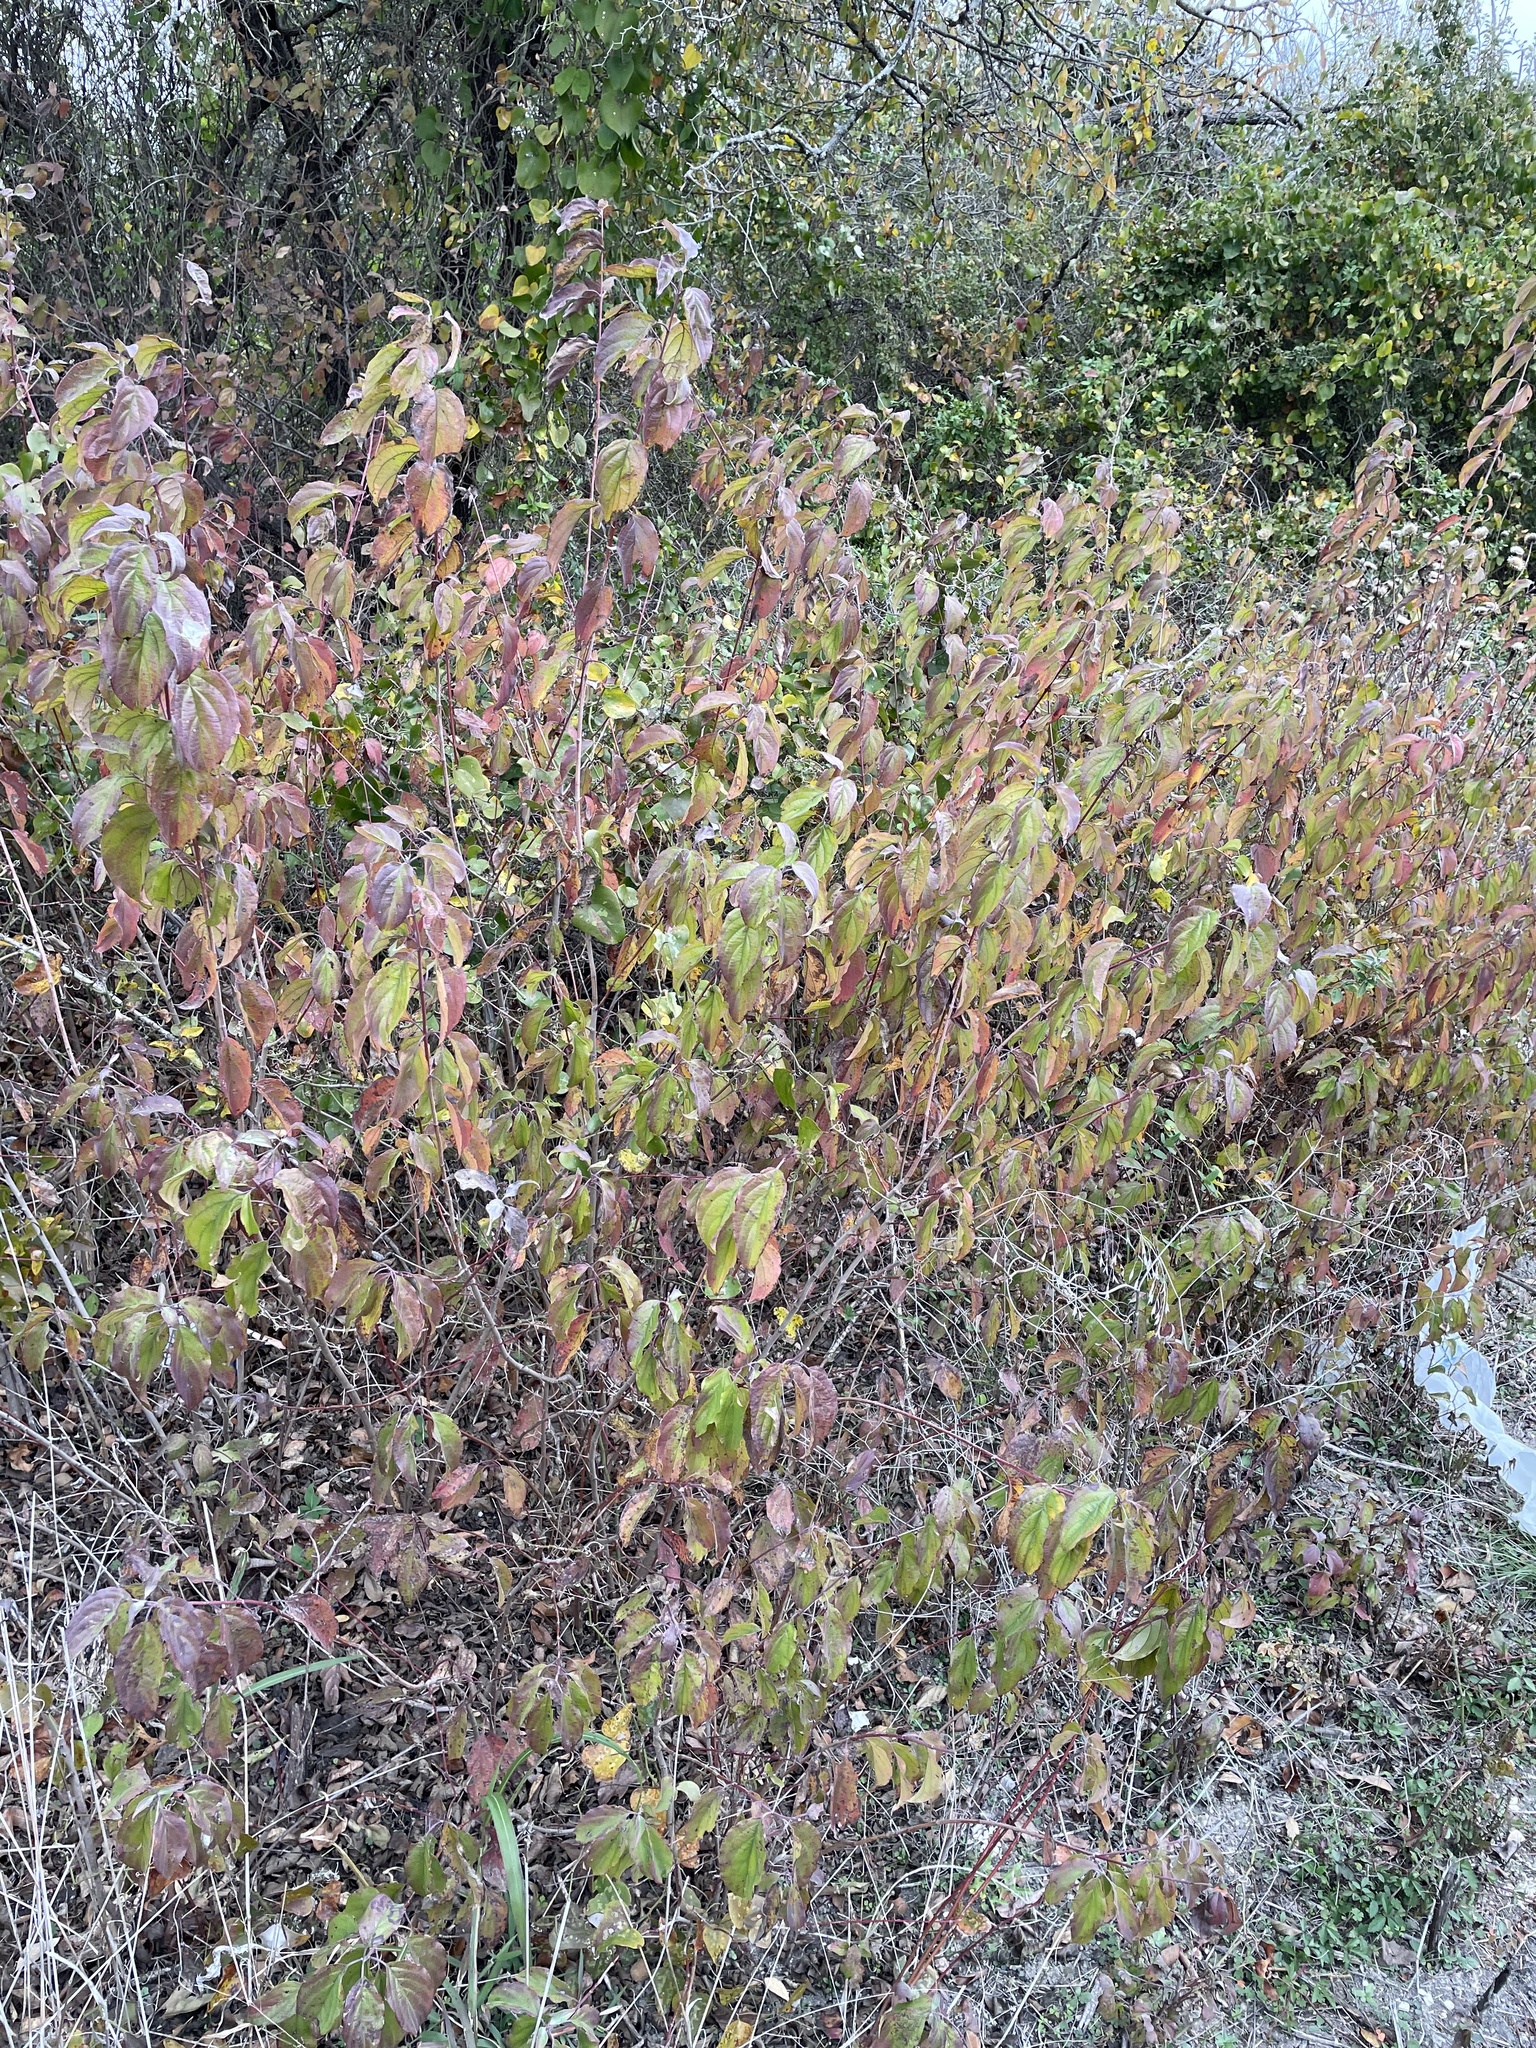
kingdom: Plantae
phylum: Tracheophyta
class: Magnoliopsida
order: Cornales
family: Cornaceae
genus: Cornus
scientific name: Cornus drummondii
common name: Rough-leaf dogwood
